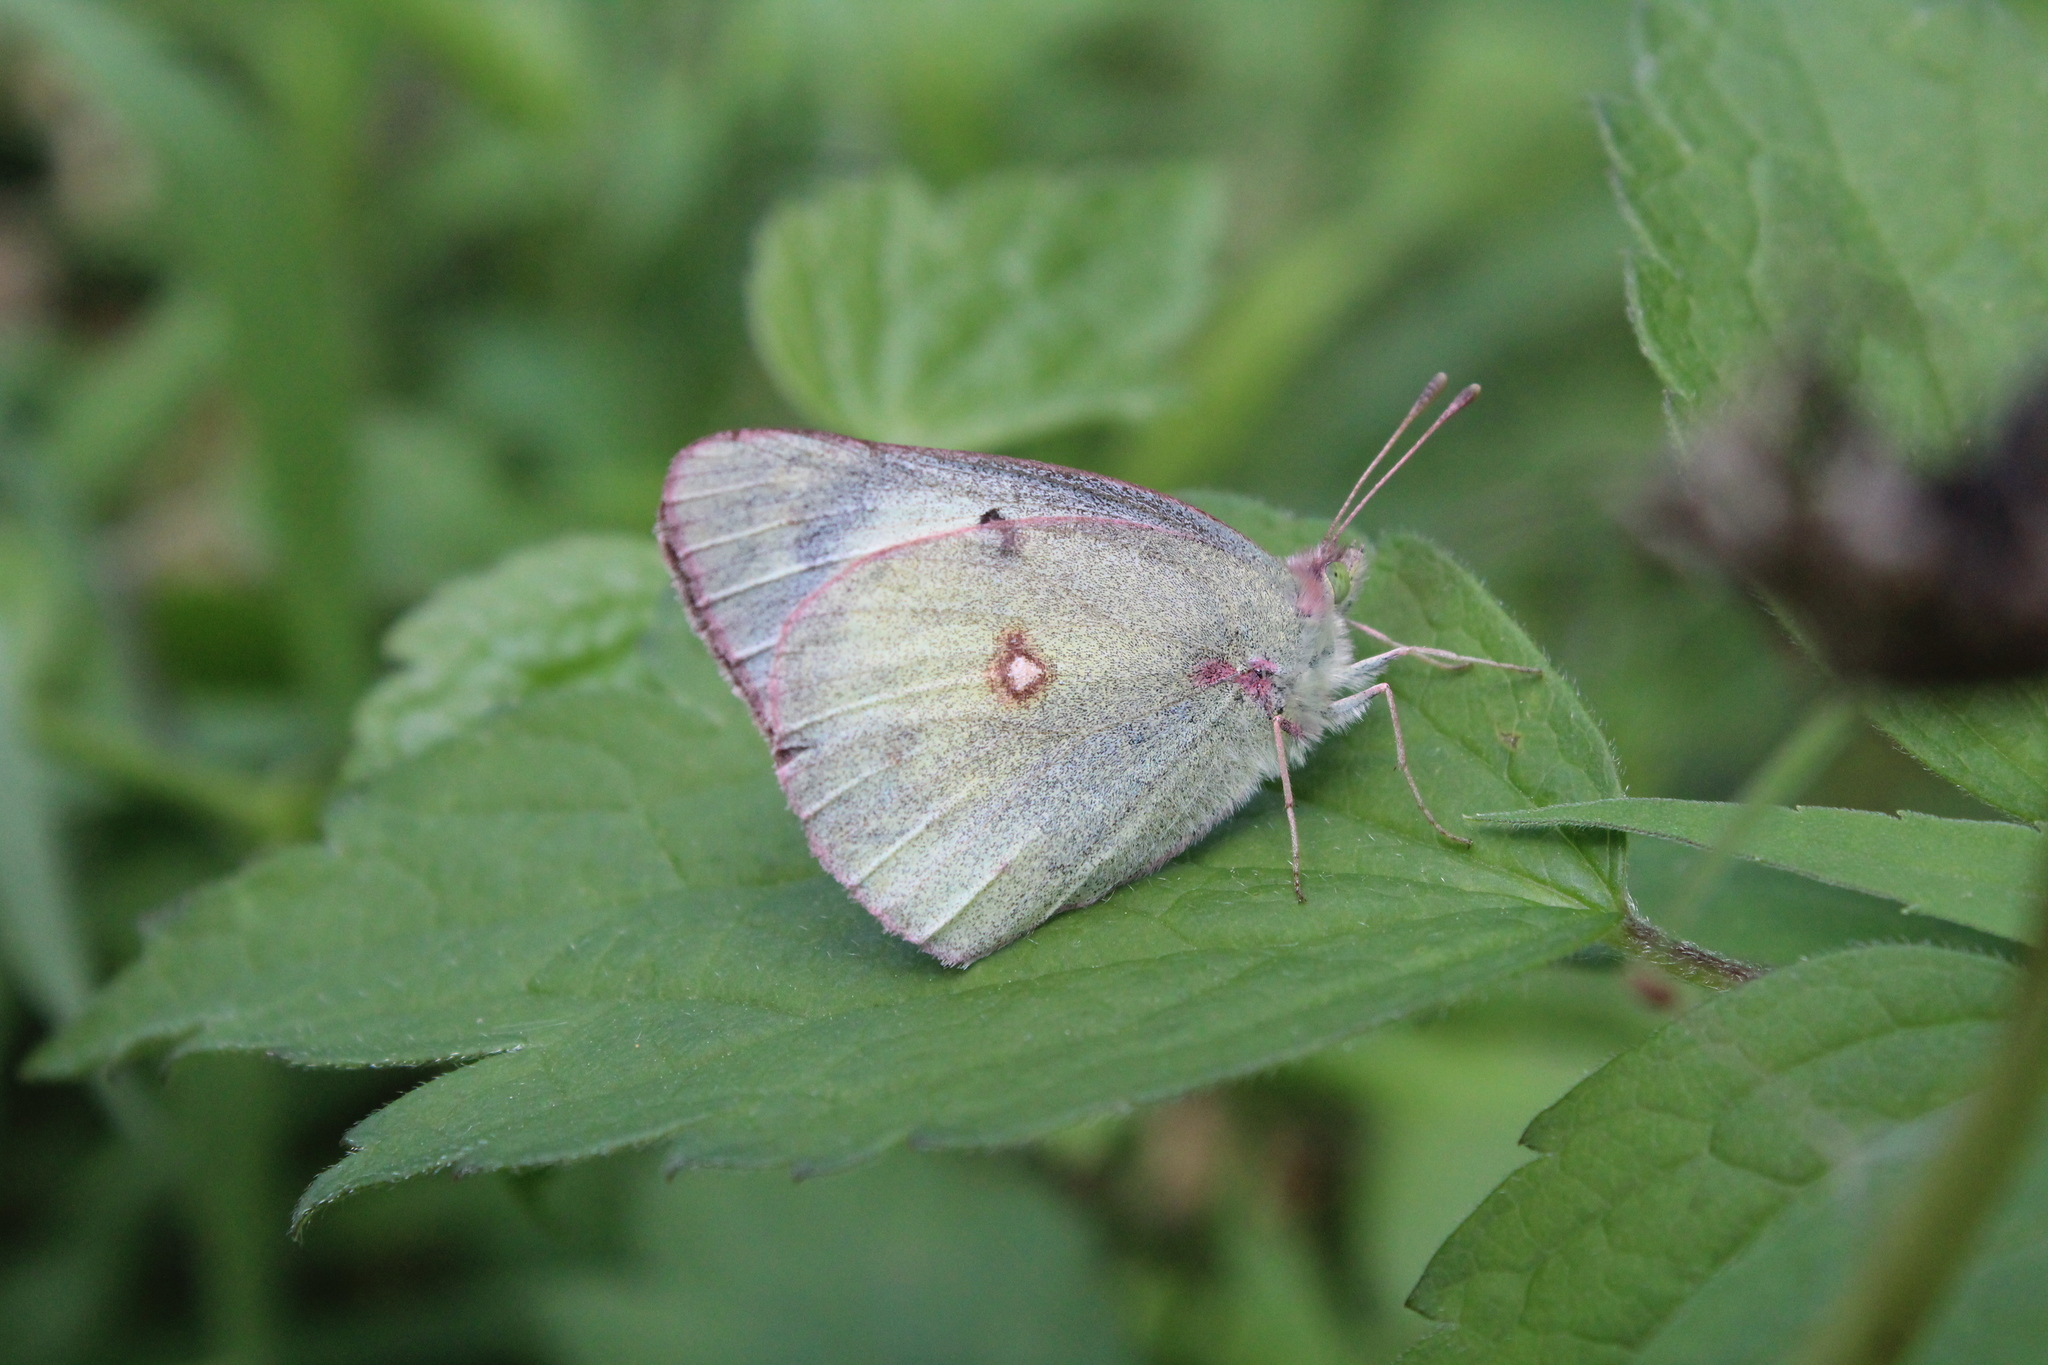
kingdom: Animalia
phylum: Arthropoda
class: Insecta
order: Lepidoptera
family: Pieridae
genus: Colias
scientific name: Colias philodice
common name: Clouded sulphur
